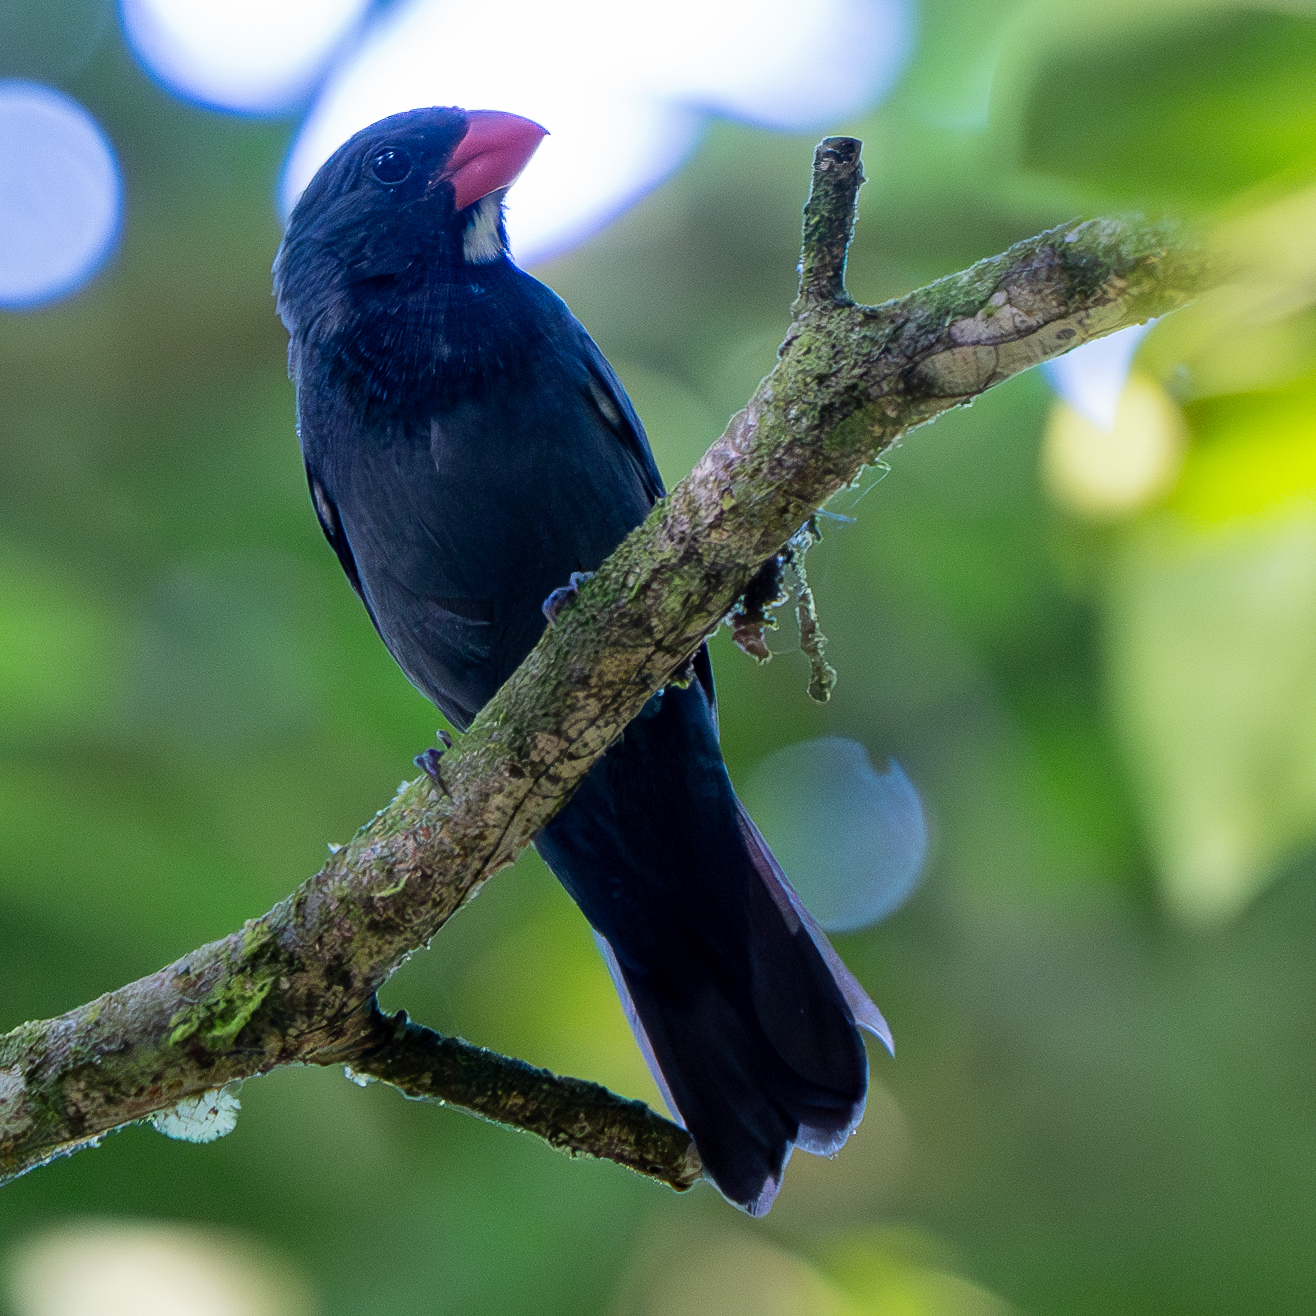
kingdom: Animalia
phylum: Chordata
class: Aves
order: Passeriformes
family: Thraupidae
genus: Saltator
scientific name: Saltator grossus
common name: Slate-colored grosbeak
